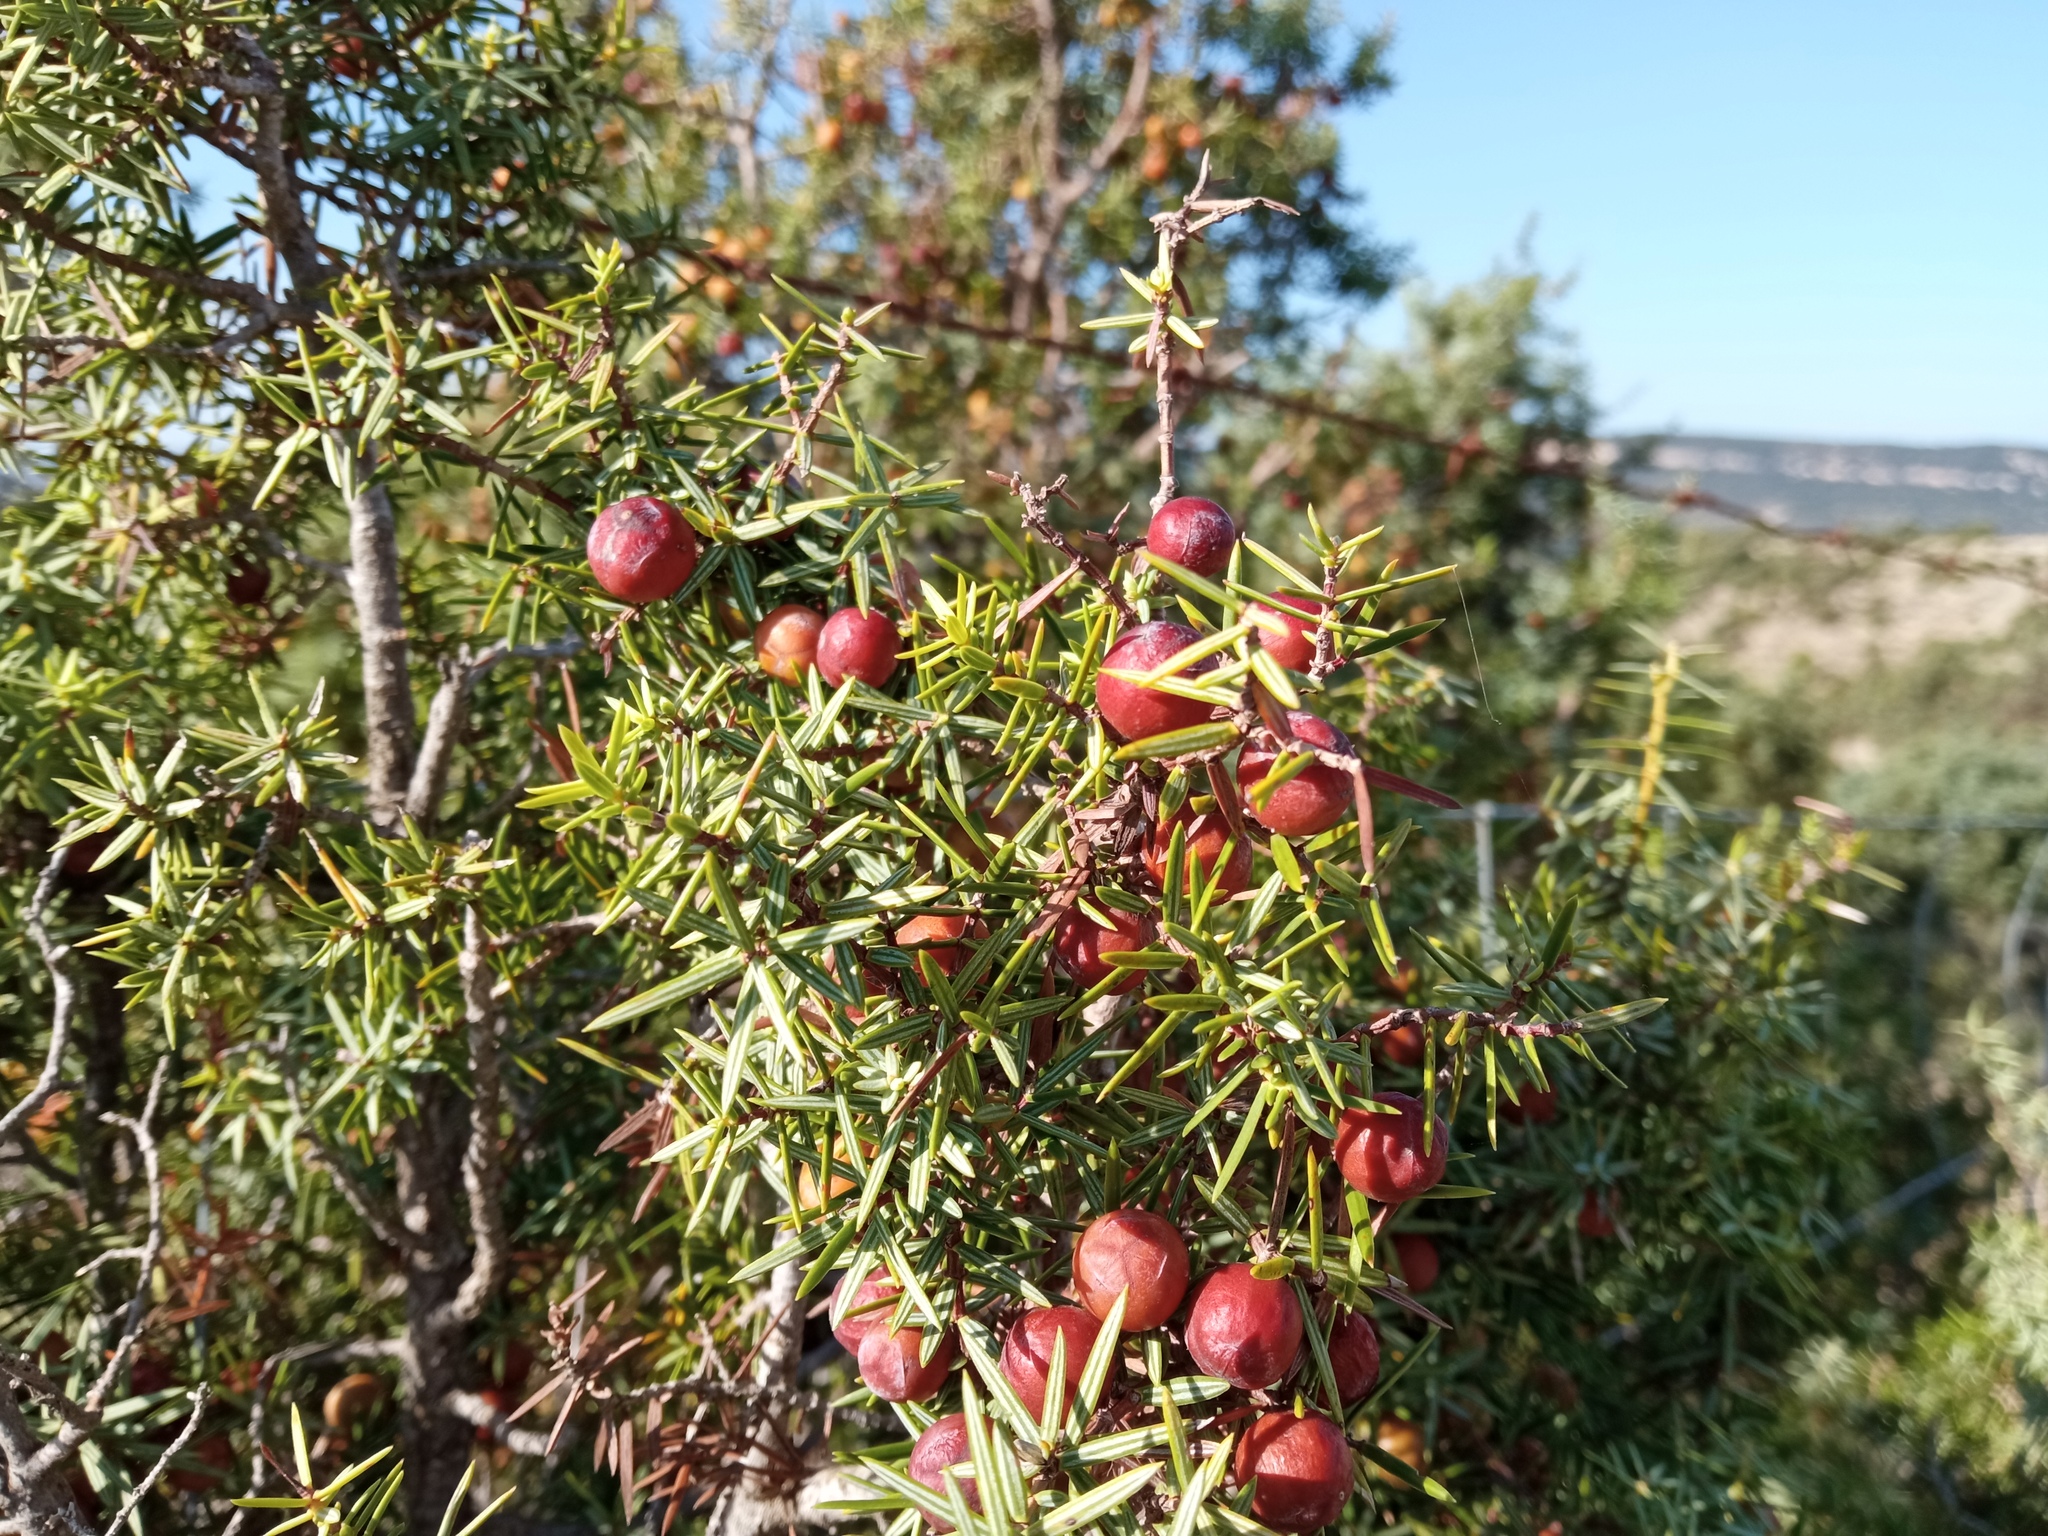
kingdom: Plantae
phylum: Tracheophyta
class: Pinopsida
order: Pinales
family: Cupressaceae
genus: Juniperus
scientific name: Juniperus oxycedrus
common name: Prickly juniper
